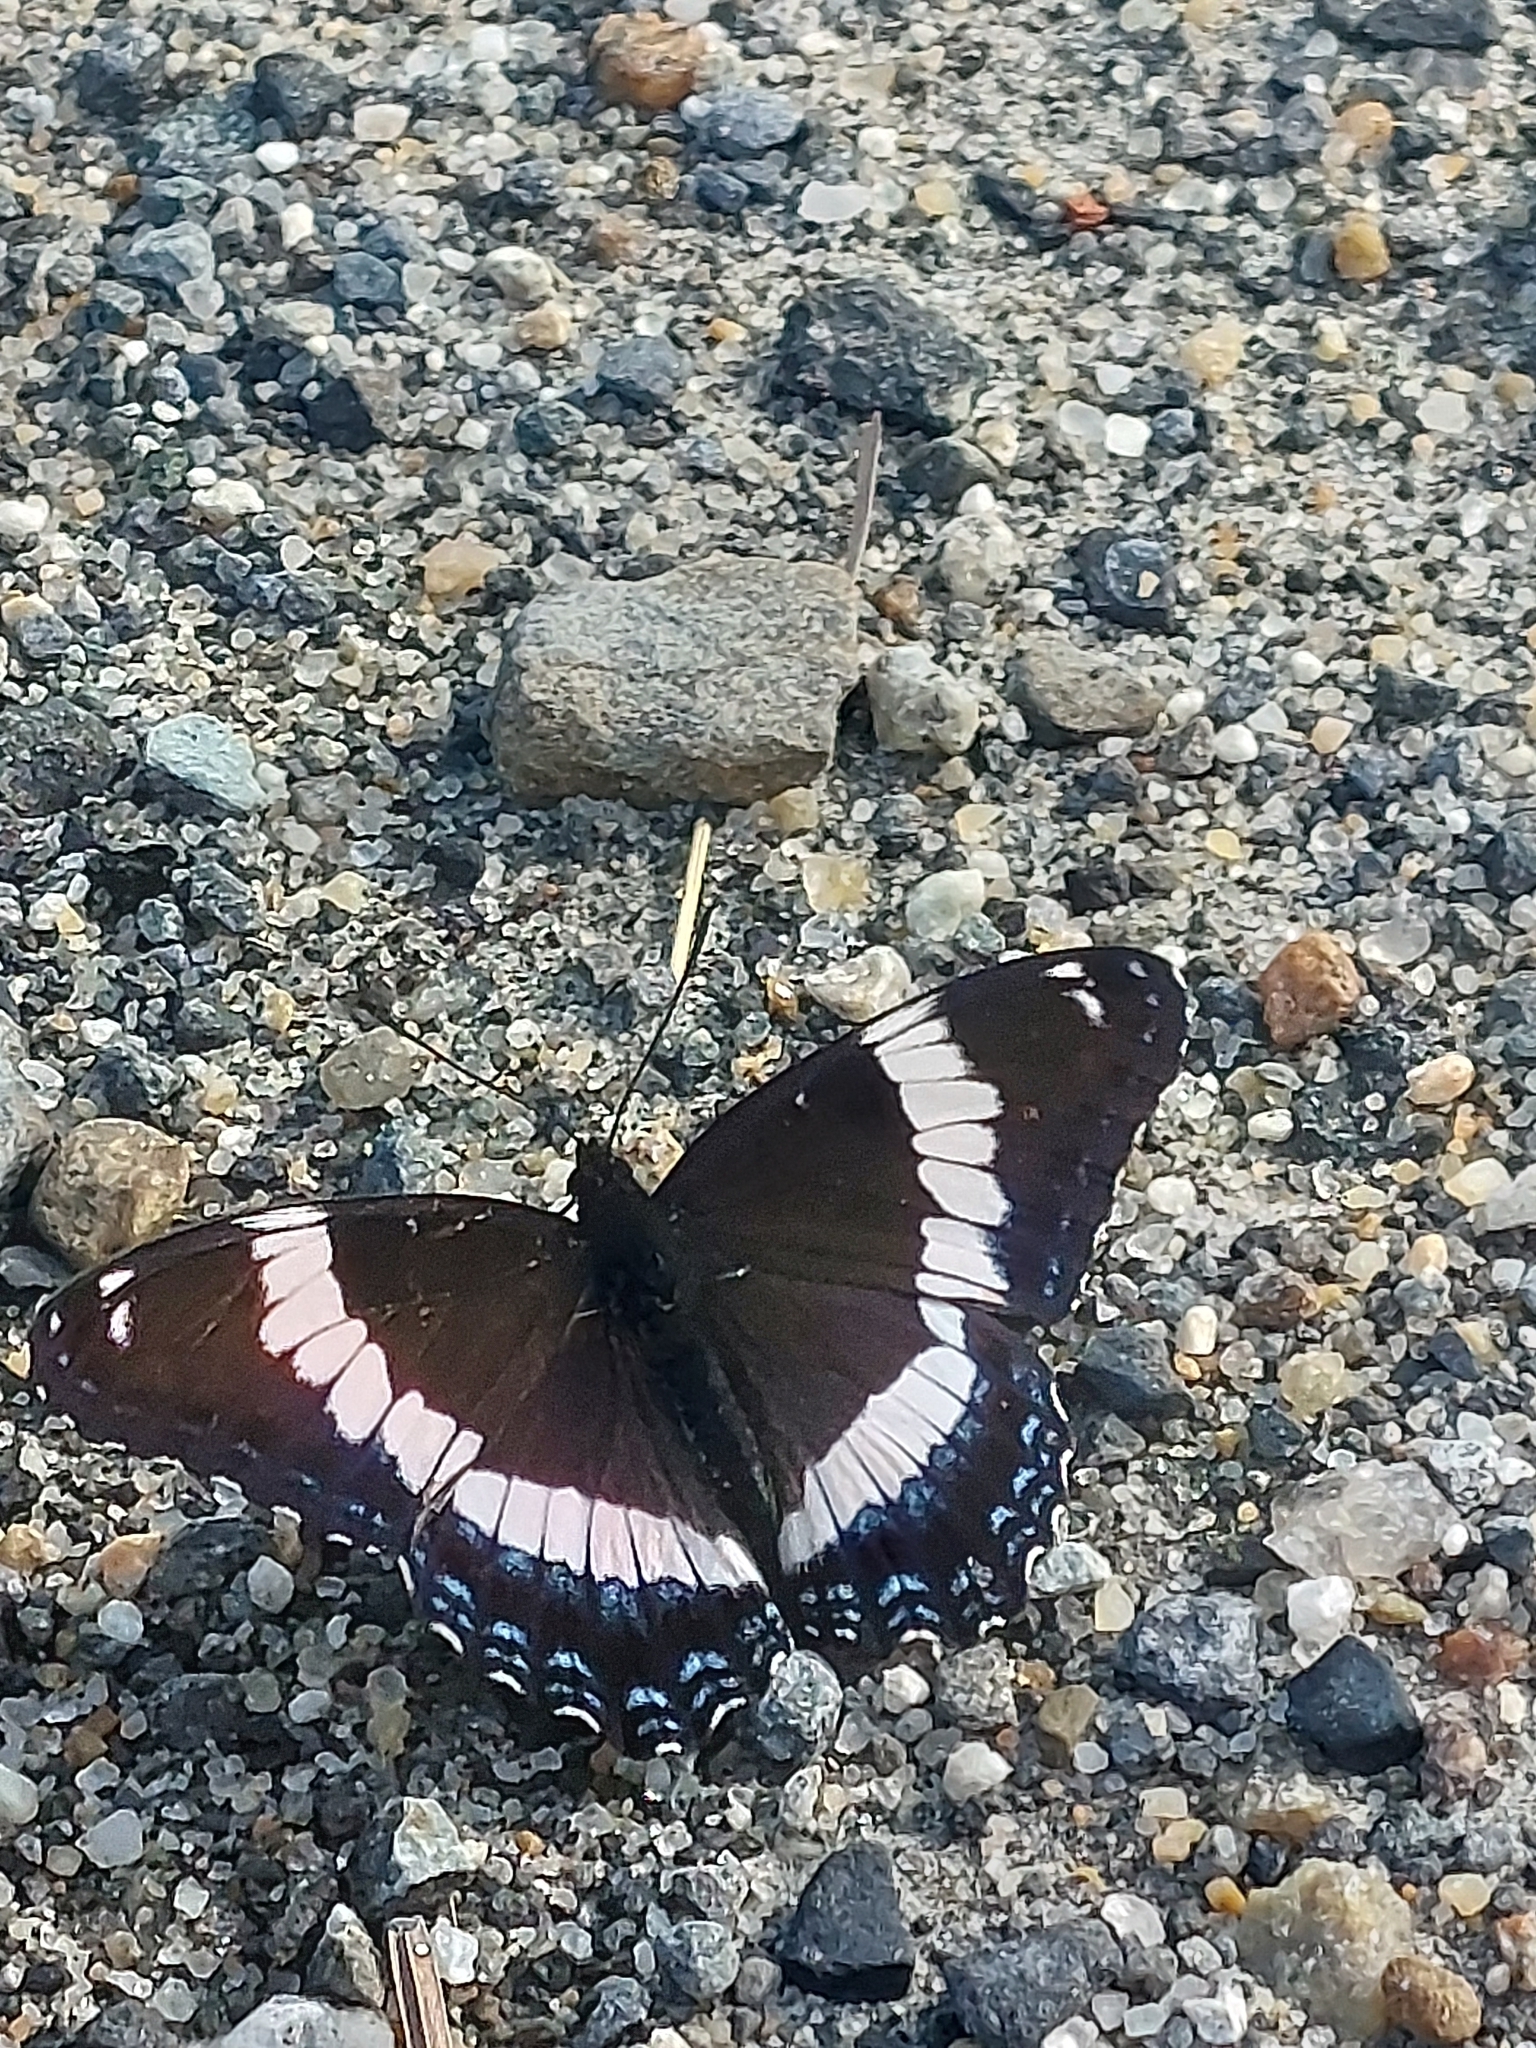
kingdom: Animalia
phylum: Arthropoda
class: Insecta
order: Lepidoptera
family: Nymphalidae
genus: Limenitis
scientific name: Limenitis arthemis
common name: Red-spotted admiral
